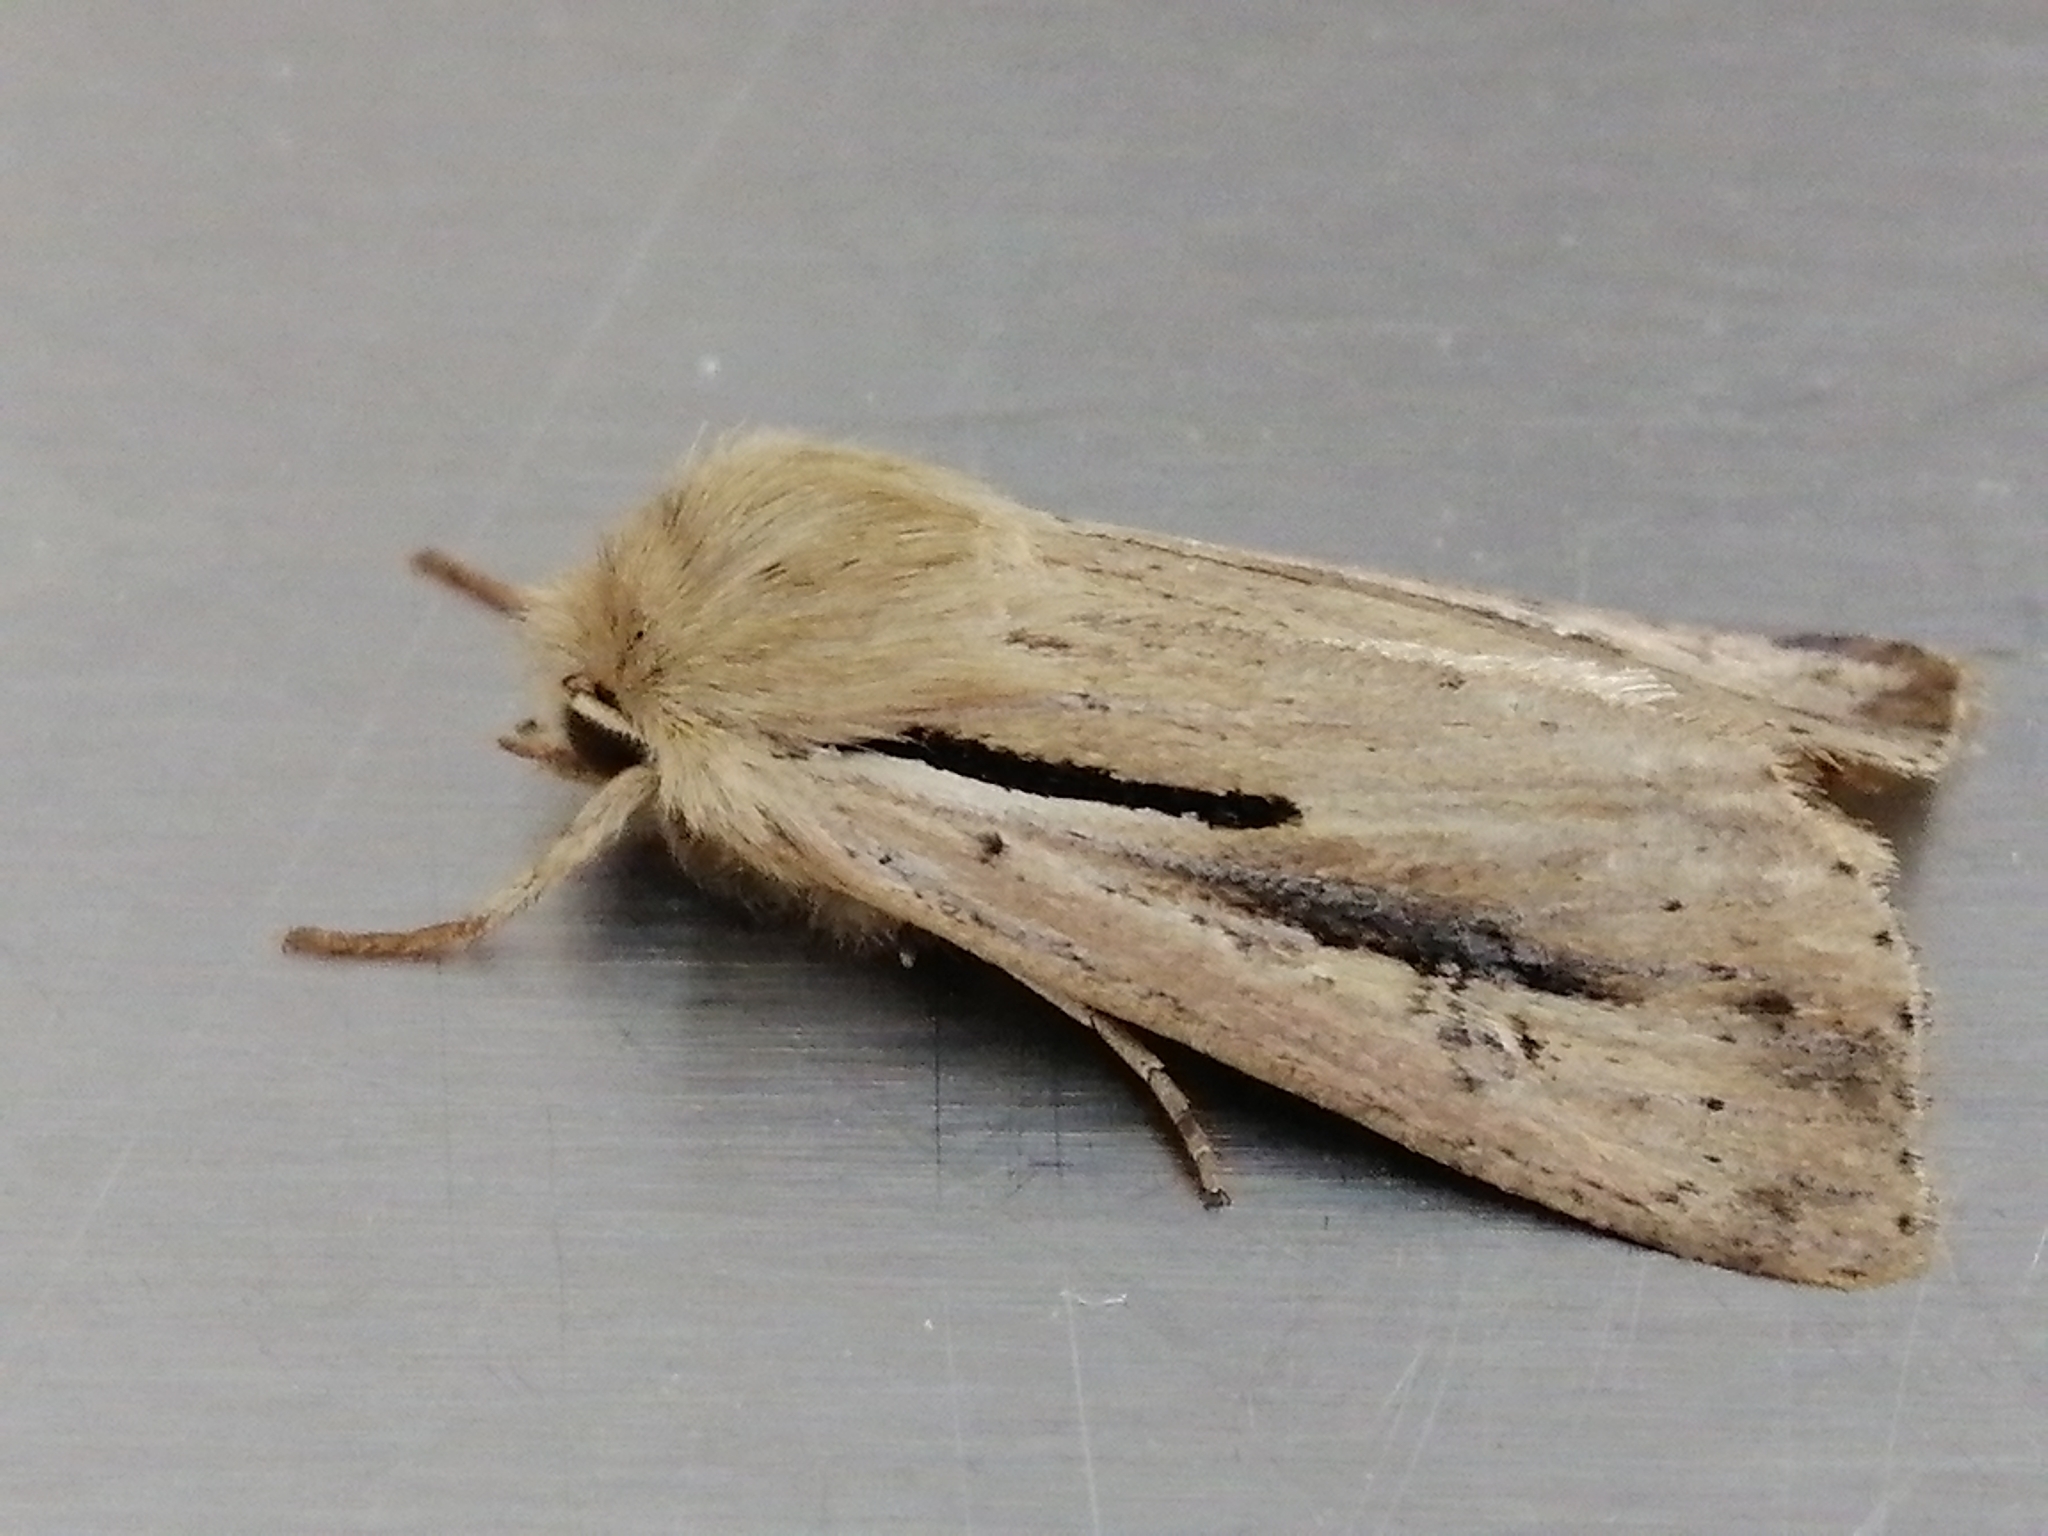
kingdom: Animalia
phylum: Arthropoda
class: Insecta
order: Lepidoptera
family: Noctuidae
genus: Ichneutica
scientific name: Ichneutica propria
